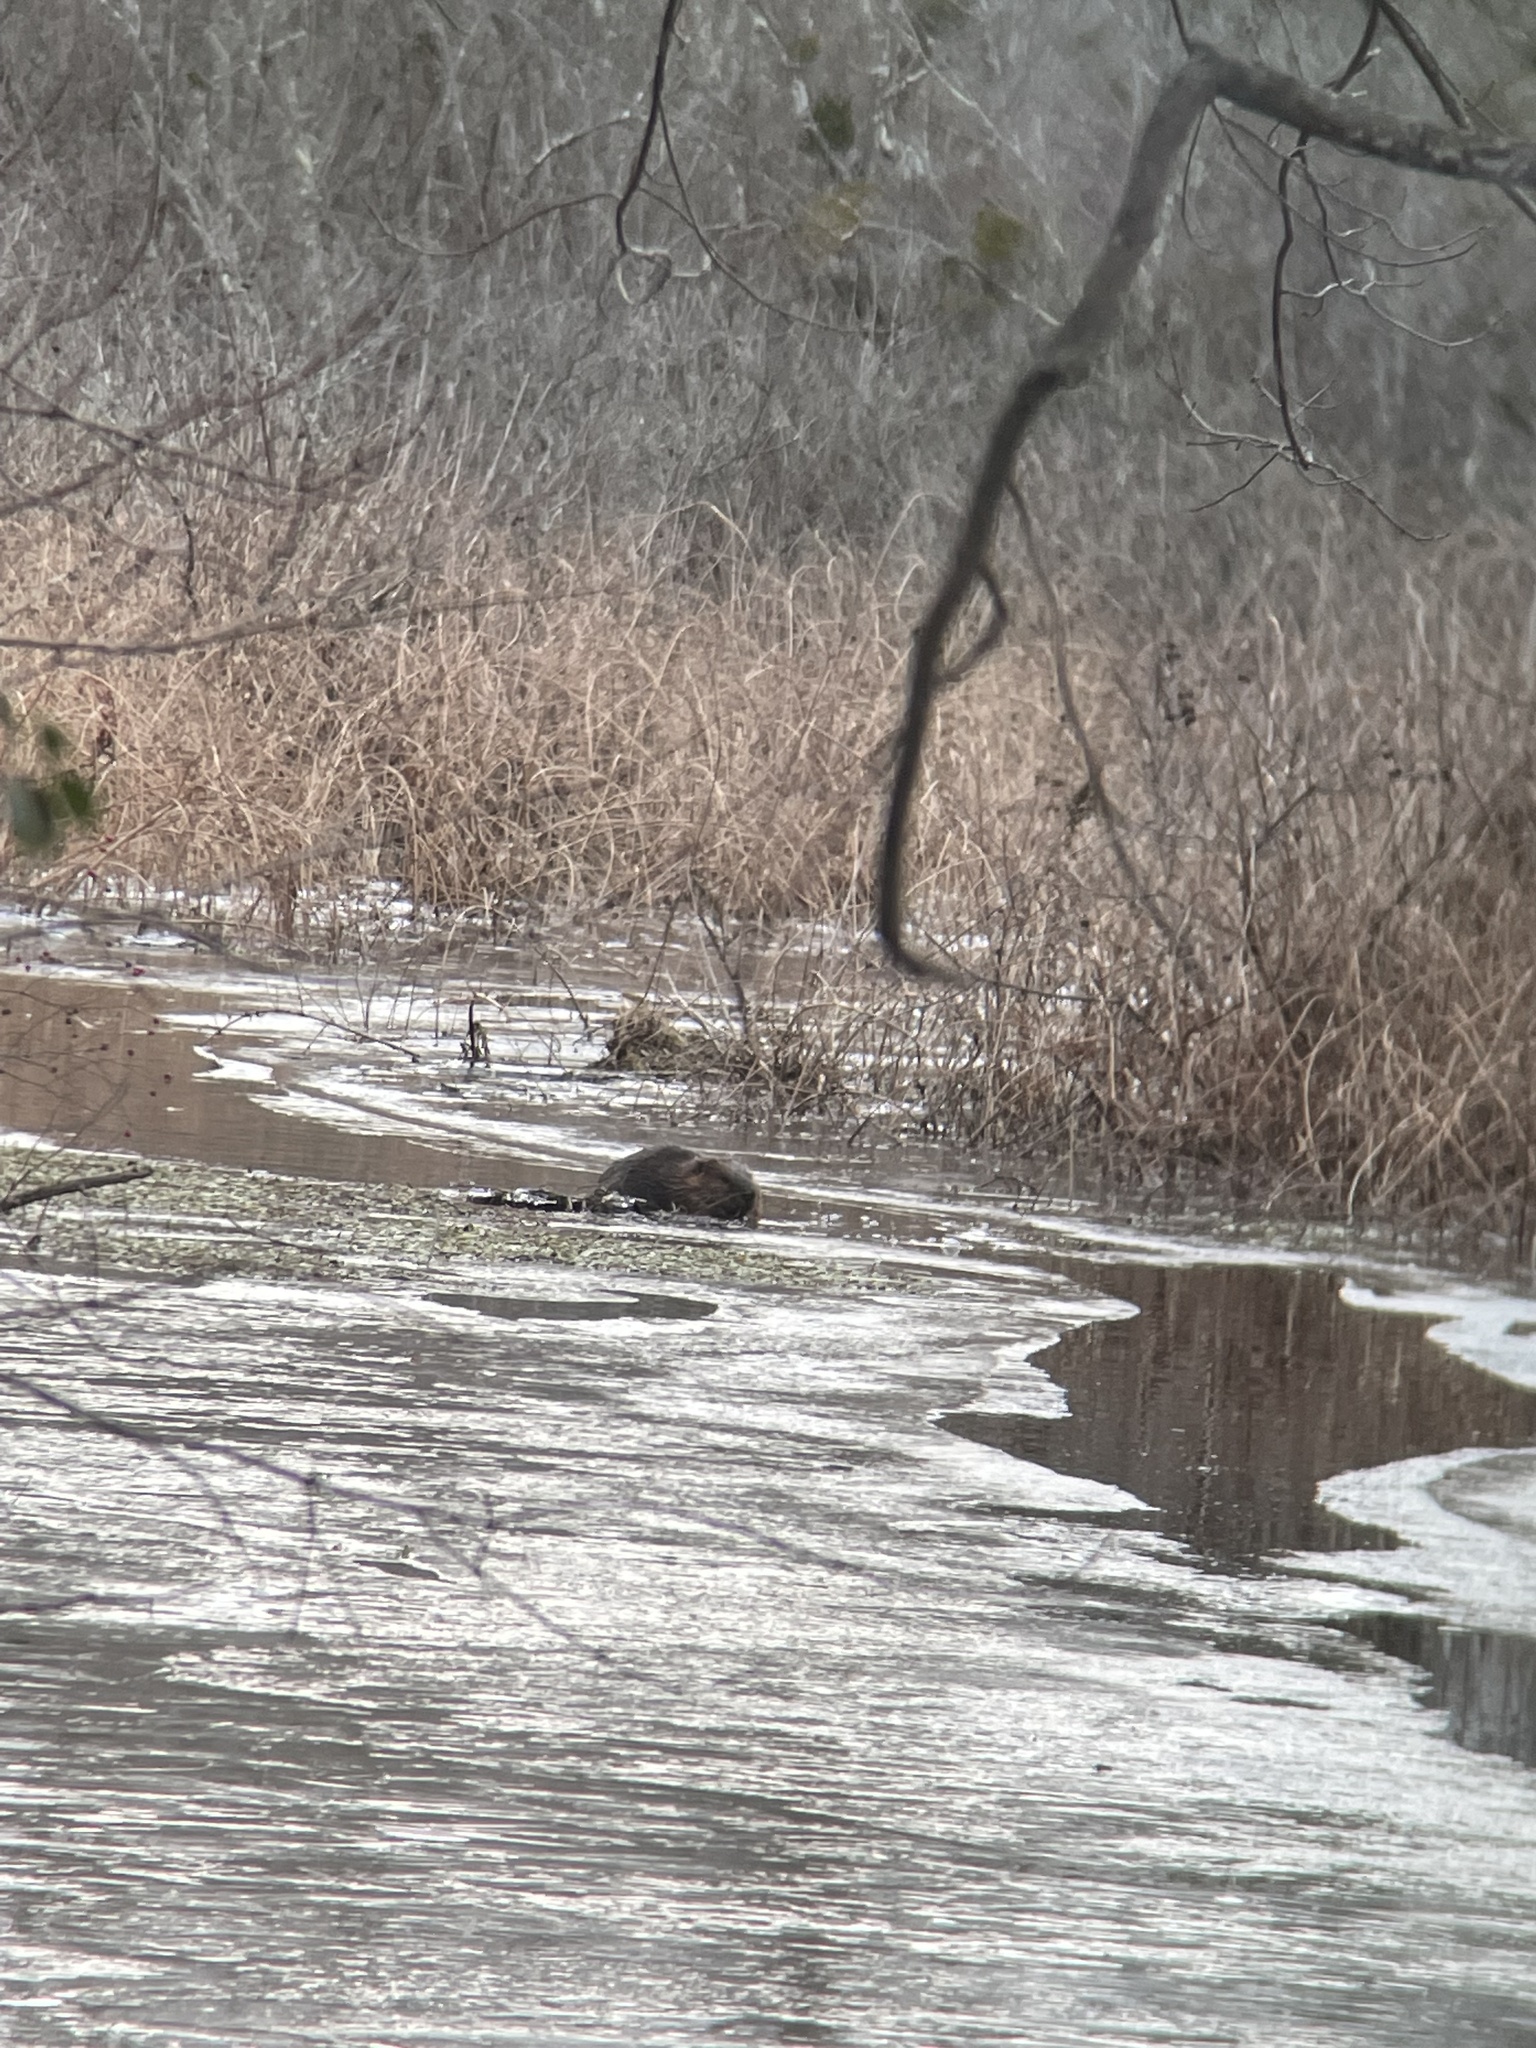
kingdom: Animalia
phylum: Chordata
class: Mammalia
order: Rodentia
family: Castoridae
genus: Castor
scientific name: Castor canadensis
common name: American beaver
